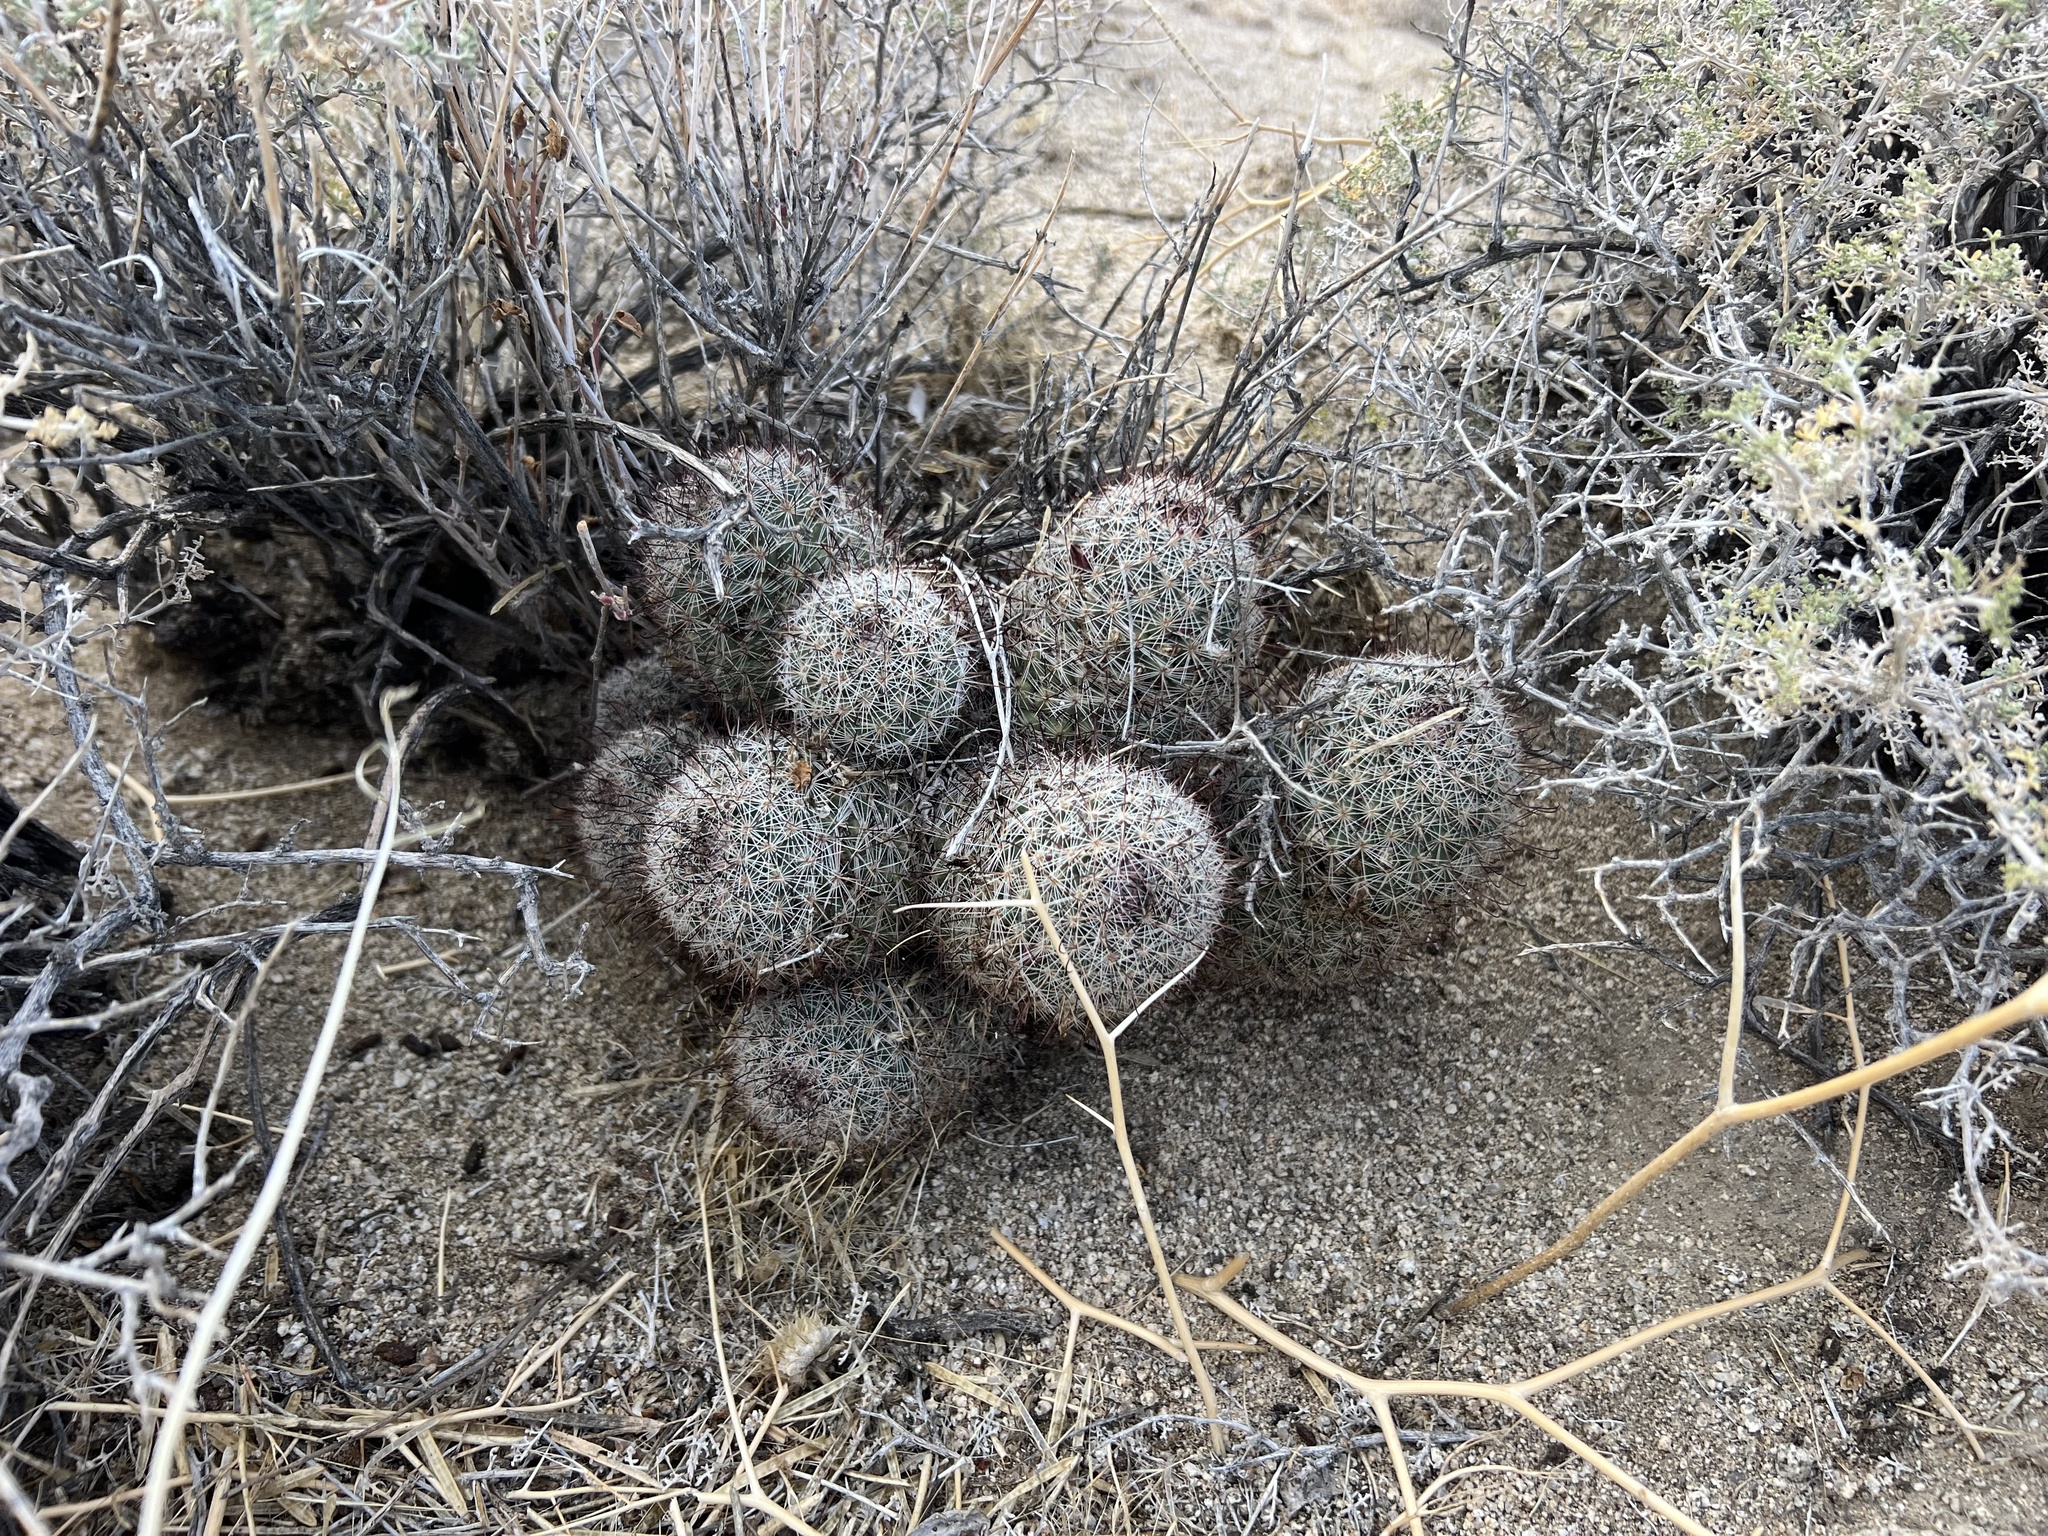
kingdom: Plantae
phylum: Tracheophyta
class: Magnoliopsida
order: Caryophyllales
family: Cactaceae
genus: Cochemiea
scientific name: Cochemiea dioica
